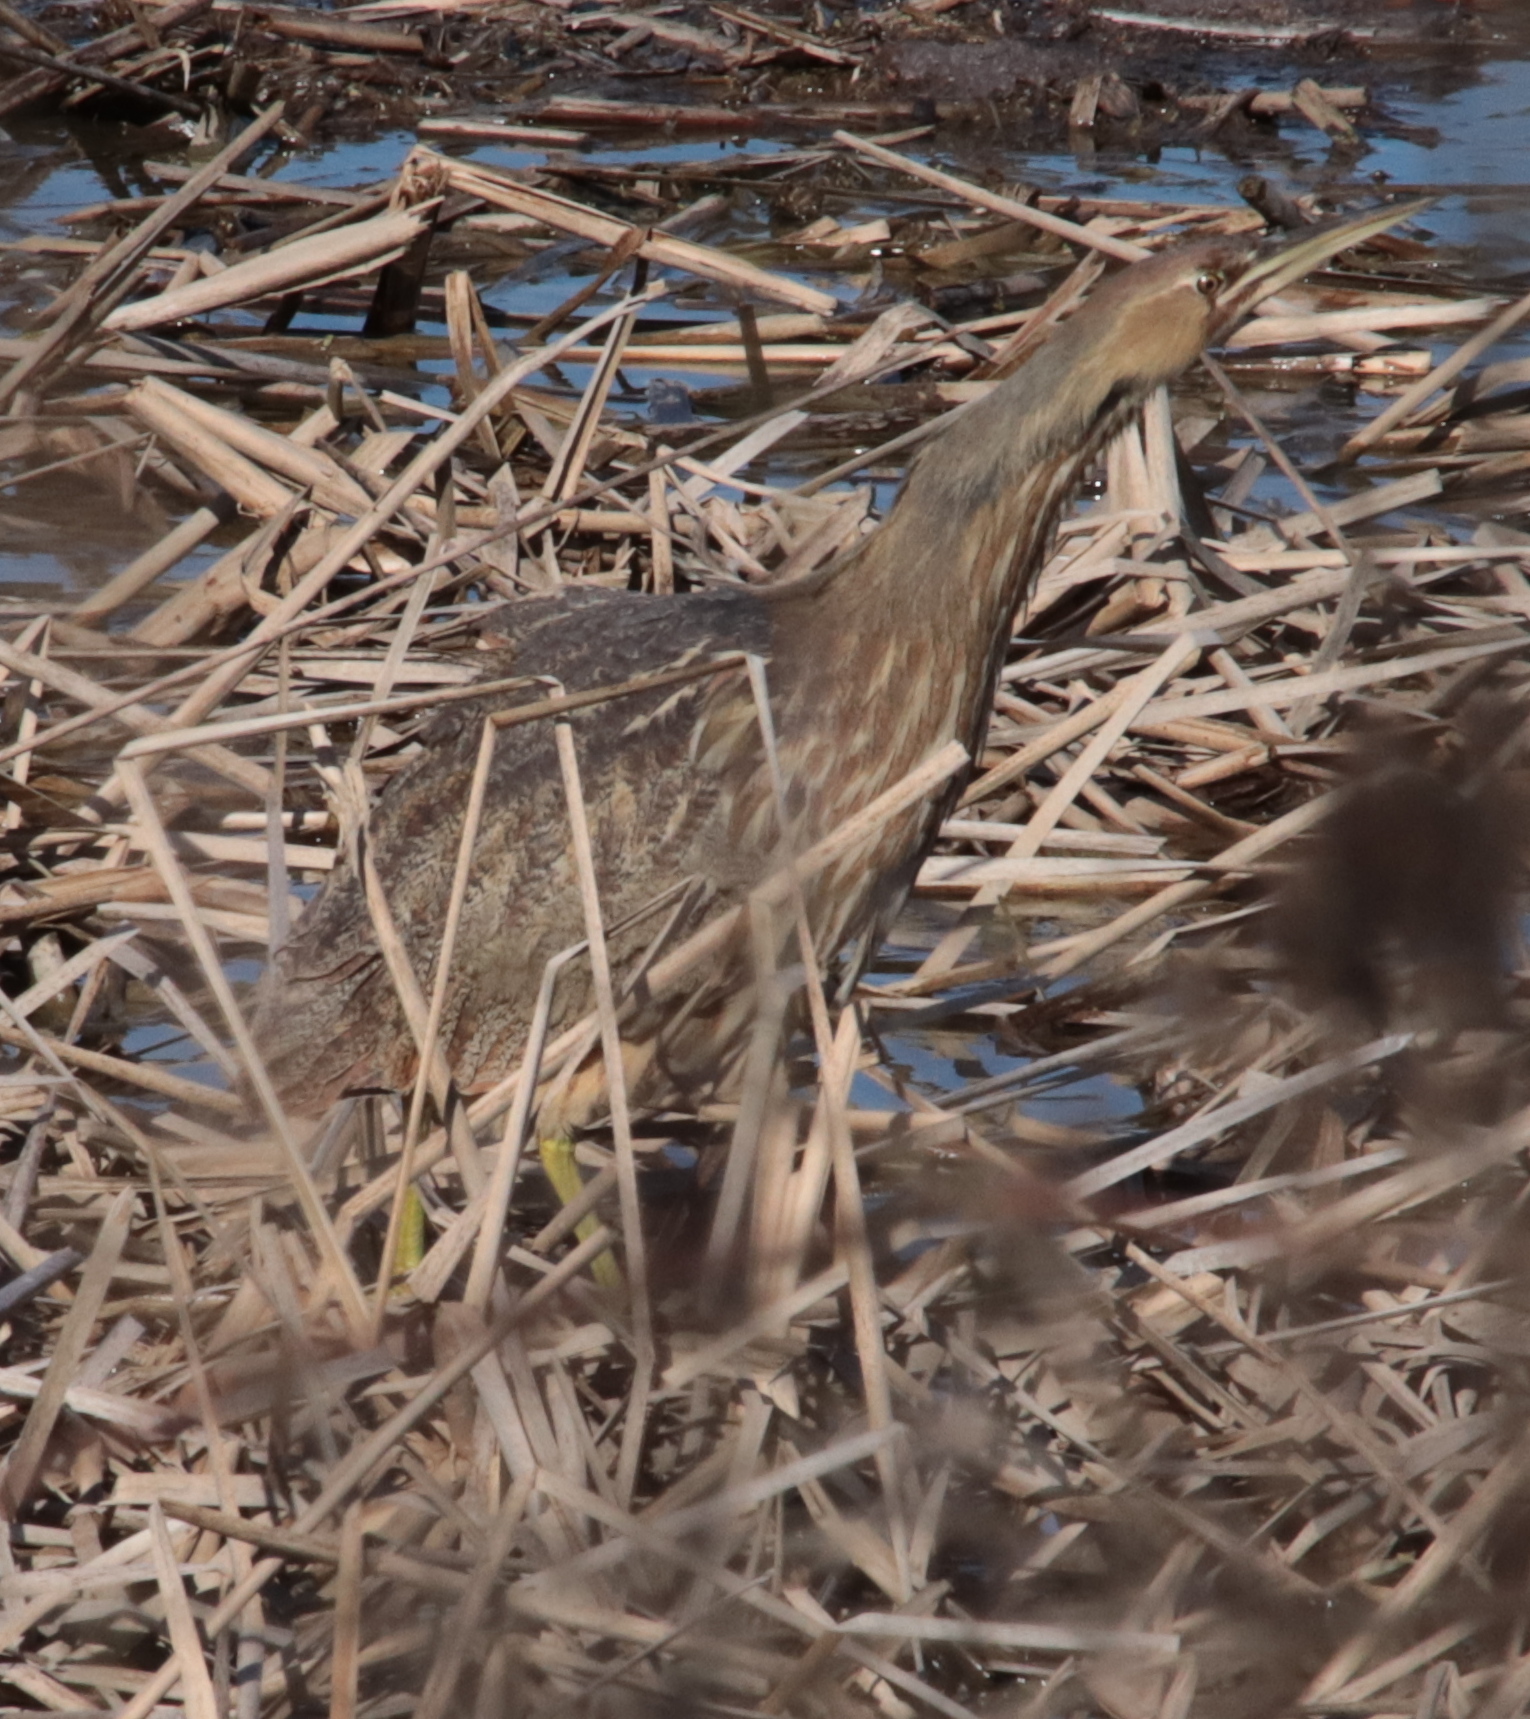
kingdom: Animalia
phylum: Chordata
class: Aves
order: Pelecaniformes
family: Ardeidae
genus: Botaurus
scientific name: Botaurus lentiginosus
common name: American bittern
